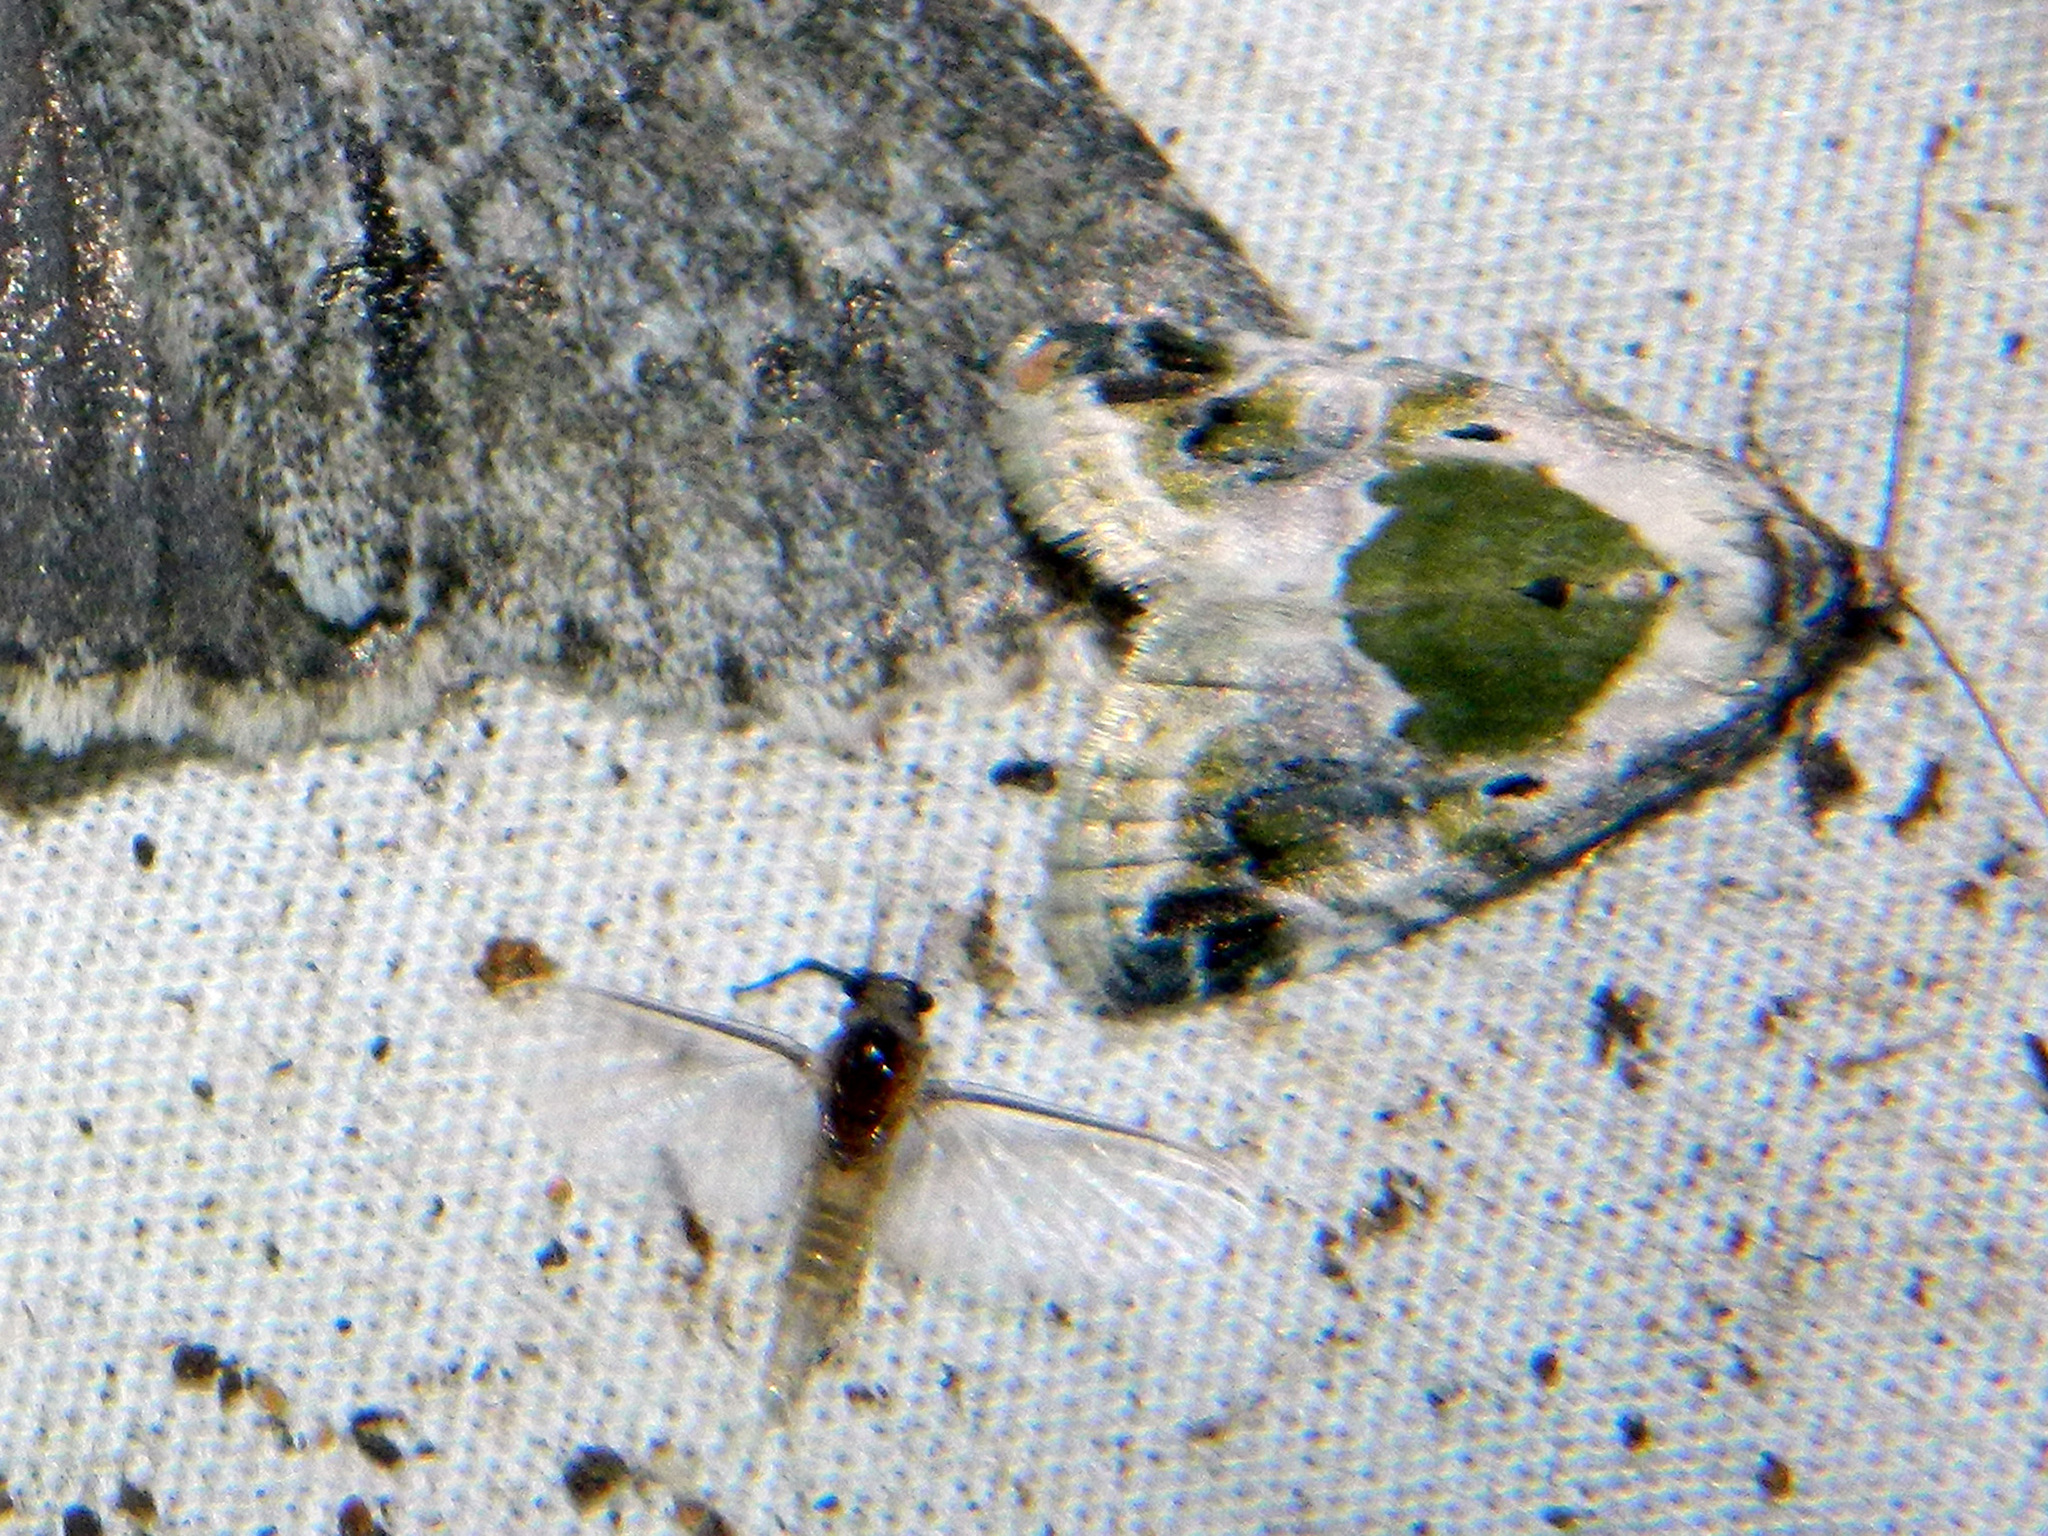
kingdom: Animalia
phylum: Arthropoda
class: Insecta
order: Lepidoptera
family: Noctuidae
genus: Maliattha
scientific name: Maliattha synochitis
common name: Black-dotted glyph
